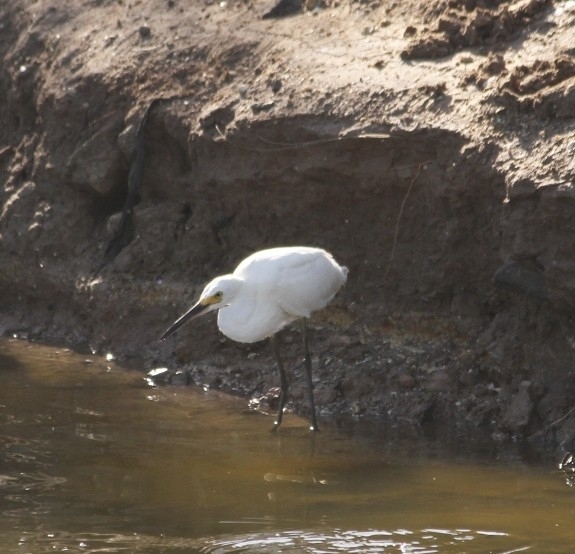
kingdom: Animalia
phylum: Chordata
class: Aves
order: Pelecaniformes
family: Ardeidae
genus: Egretta
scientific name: Egretta thula
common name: Snowy egret
